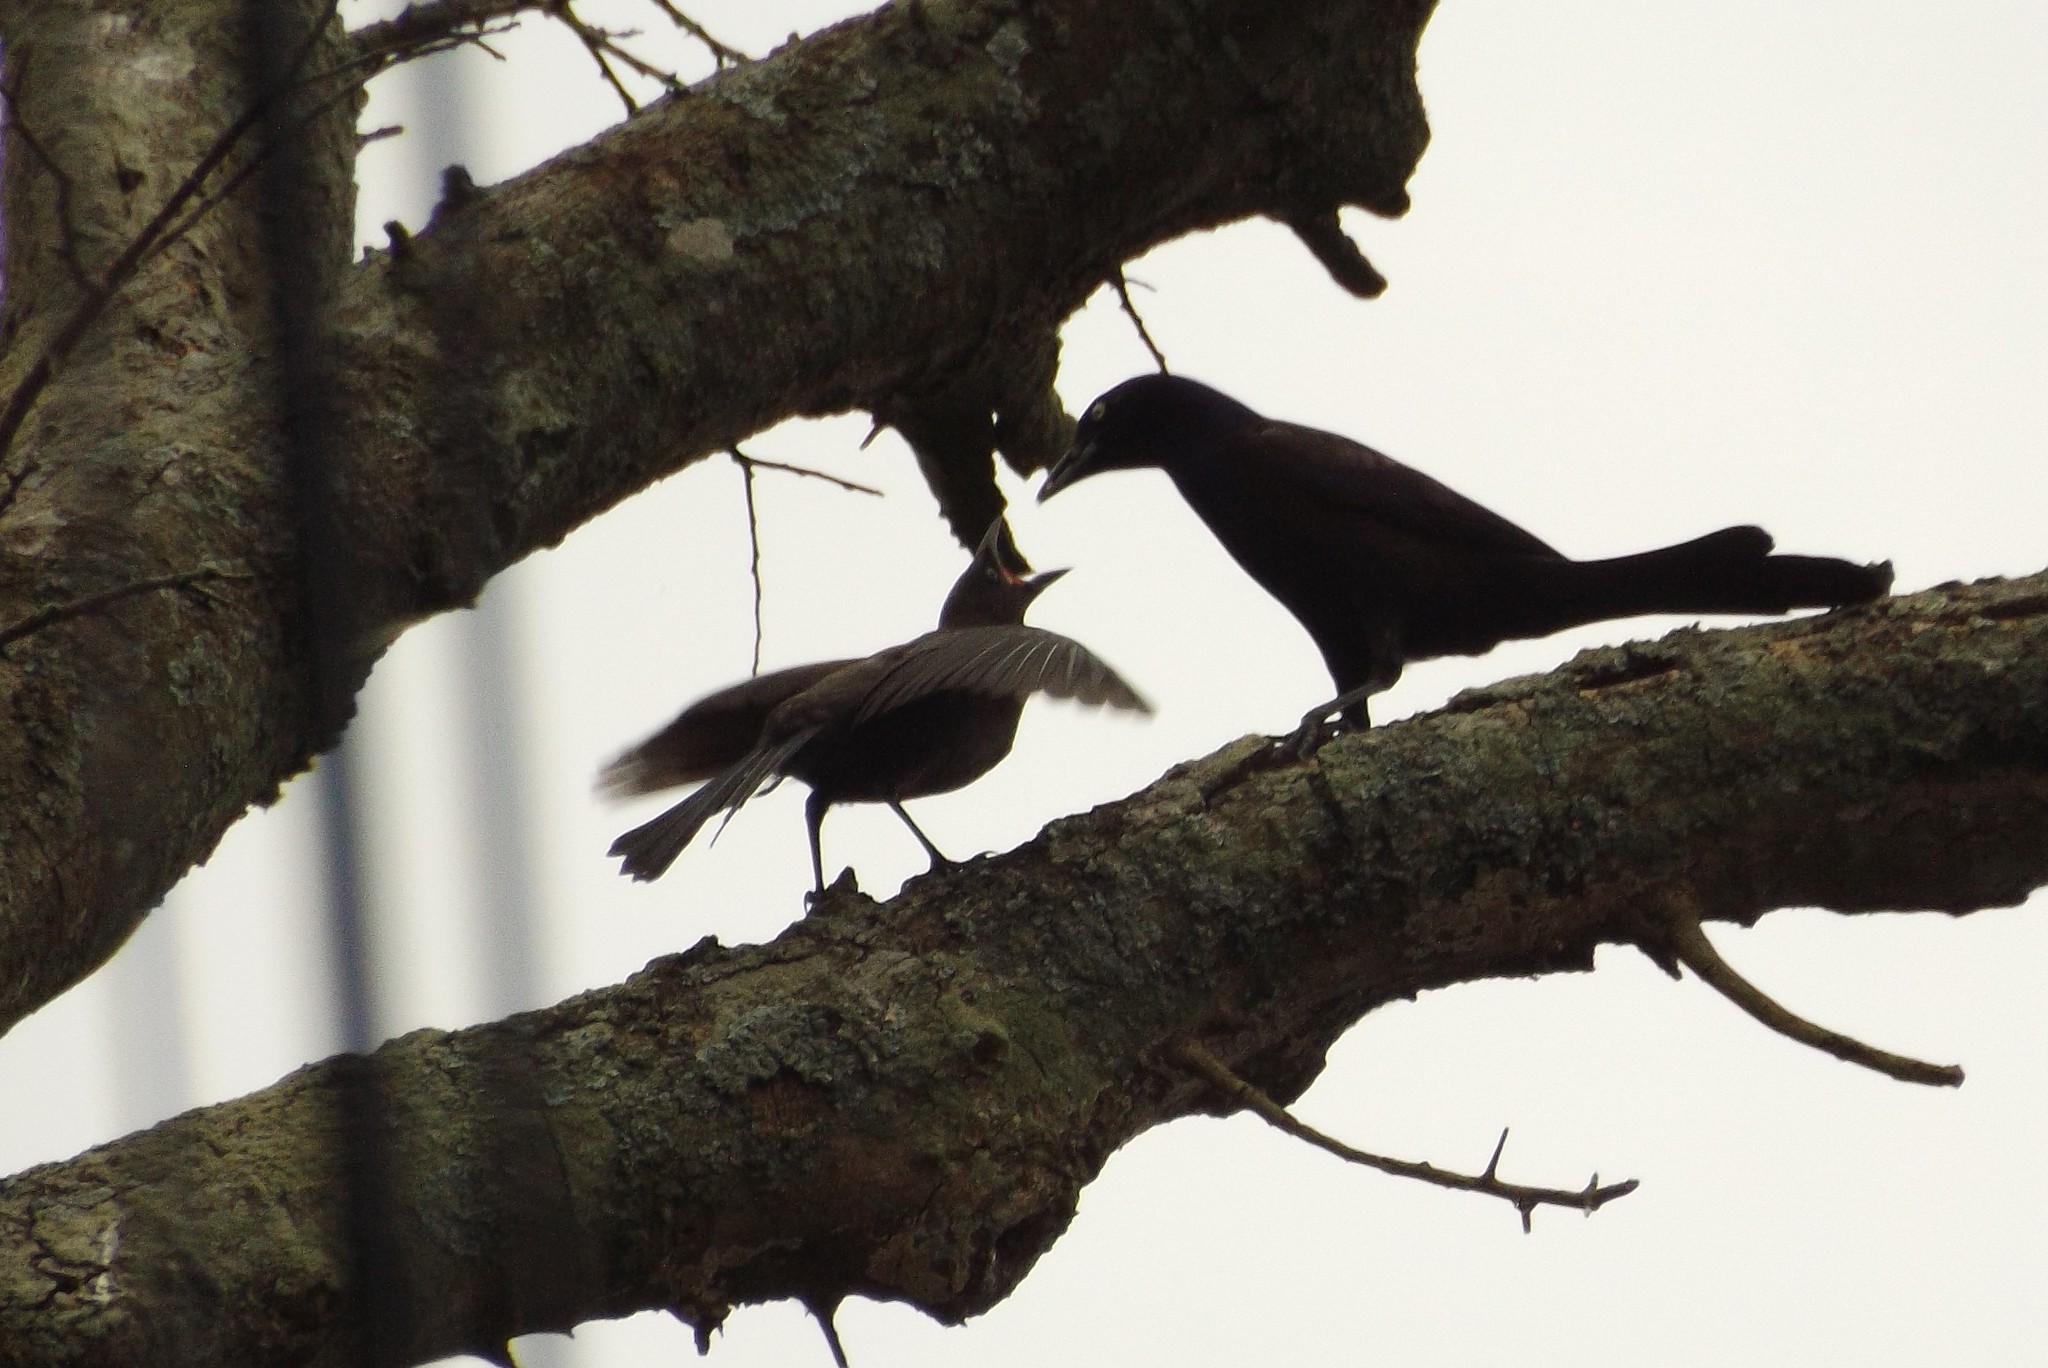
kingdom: Animalia
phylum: Chordata
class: Aves
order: Passeriformes
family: Icteridae
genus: Quiscalus
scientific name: Quiscalus quiscula
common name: Common grackle
